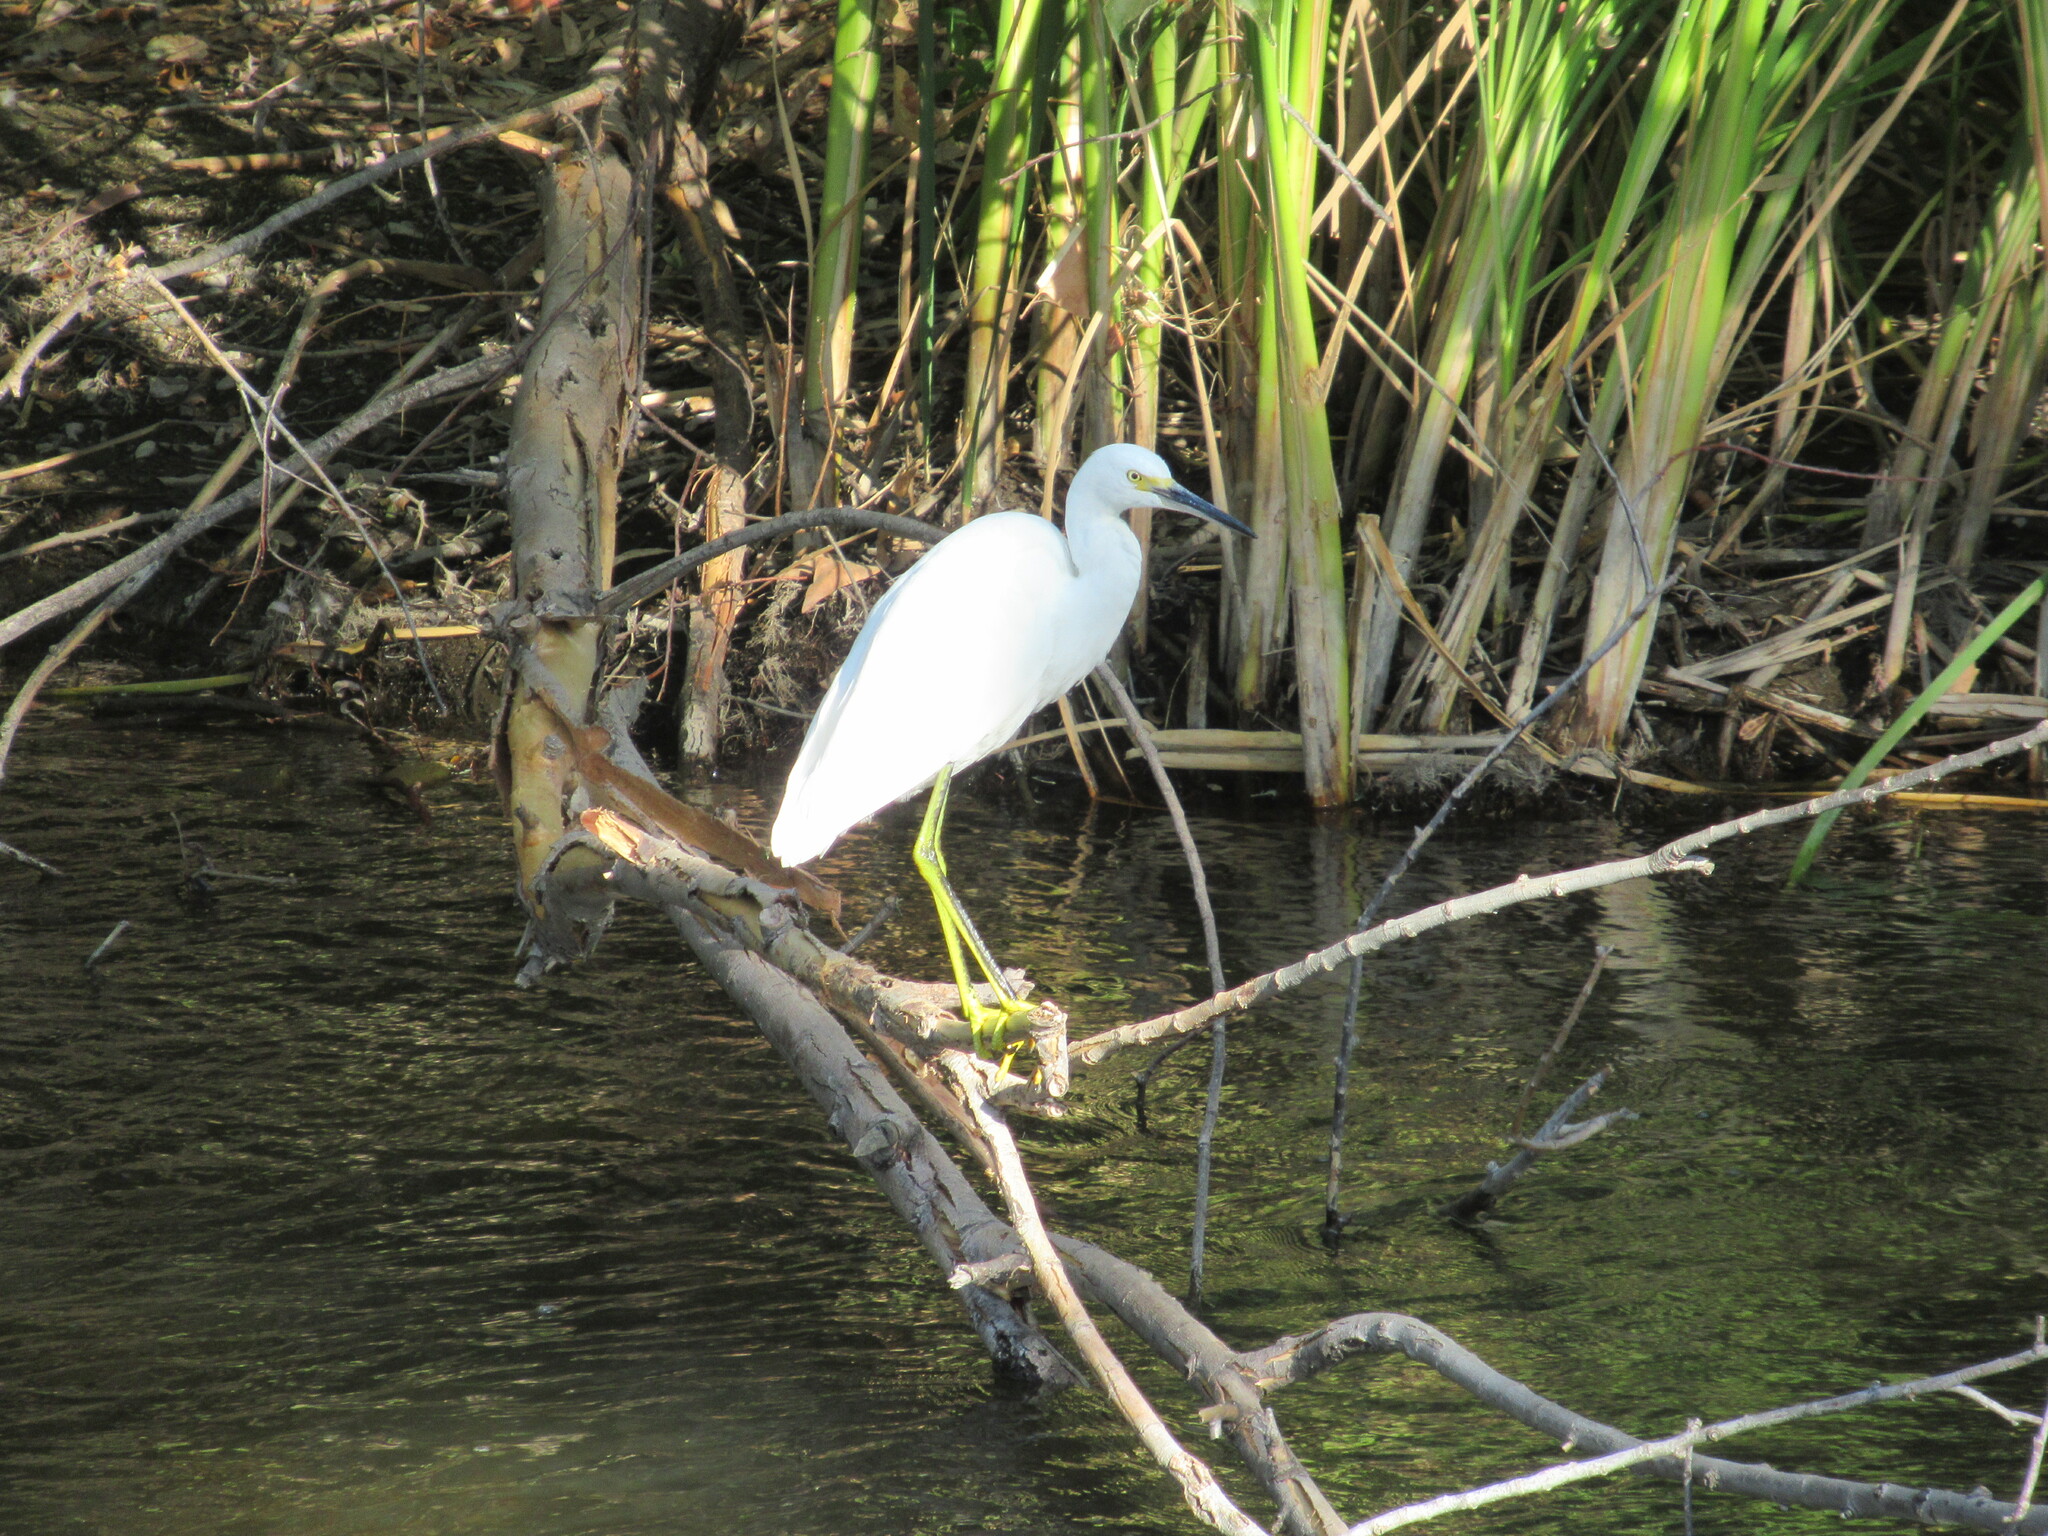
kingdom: Animalia
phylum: Chordata
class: Aves
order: Pelecaniformes
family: Ardeidae
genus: Egretta
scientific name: Egretta thula
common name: Snowy egret
